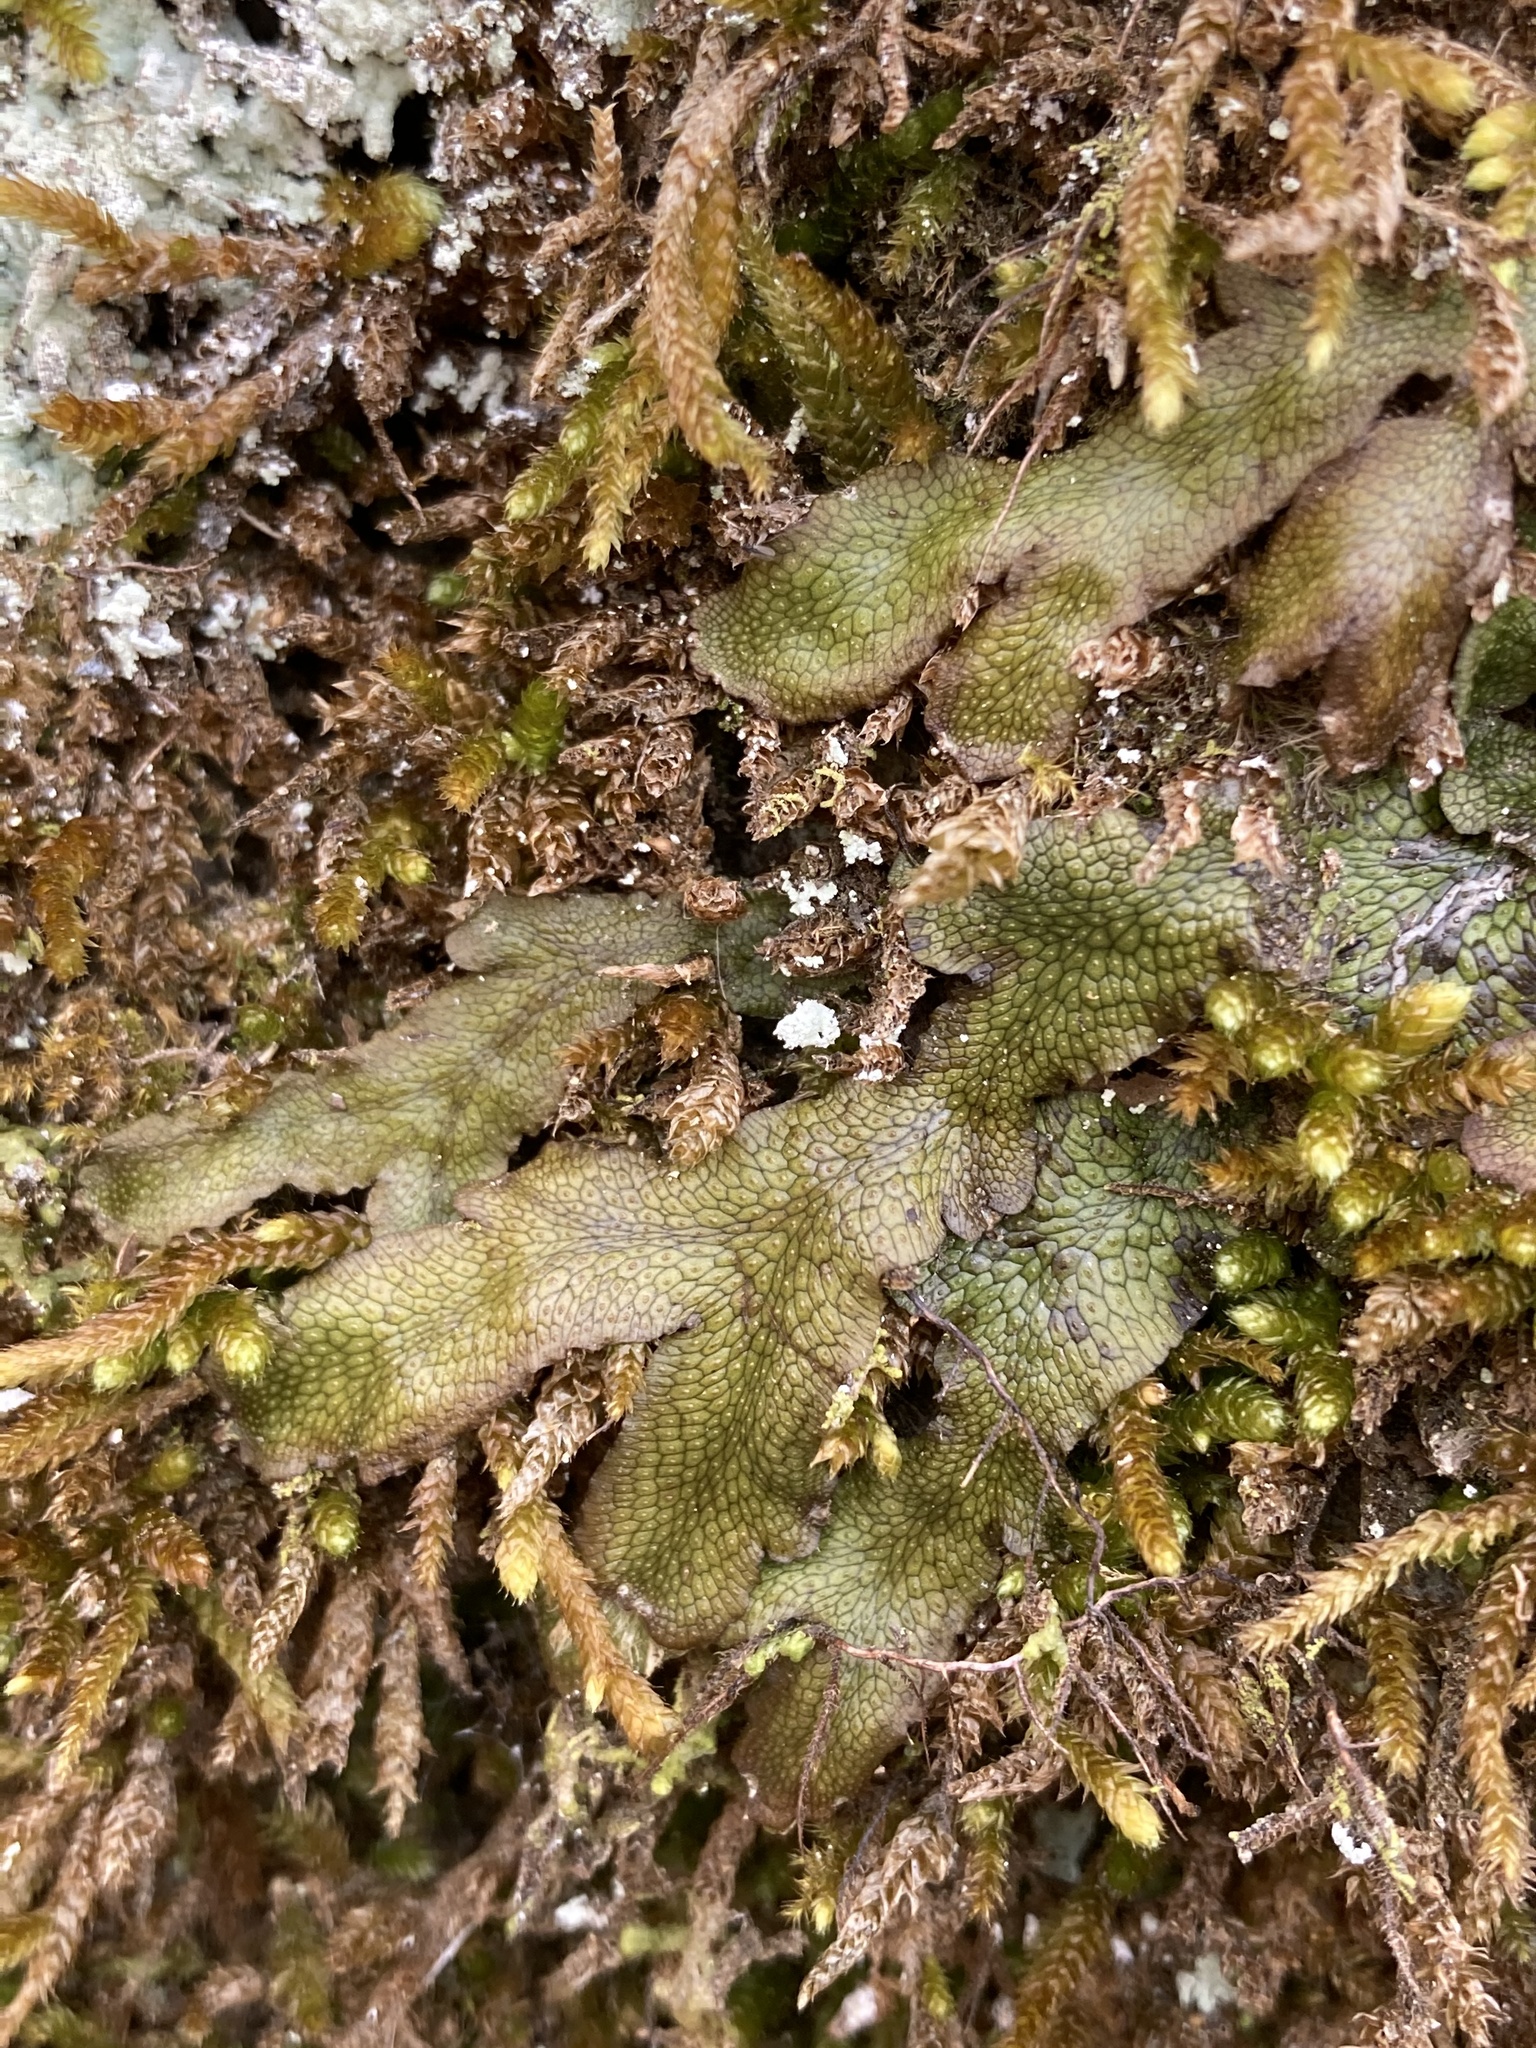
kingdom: Plantae
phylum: Marchantiophyta
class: Marchantiopsida
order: Marchantiales
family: Conocephalaceae
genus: Conocephalum
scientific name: Conocephalum salebrosum
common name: Cat-tongue liverwort
